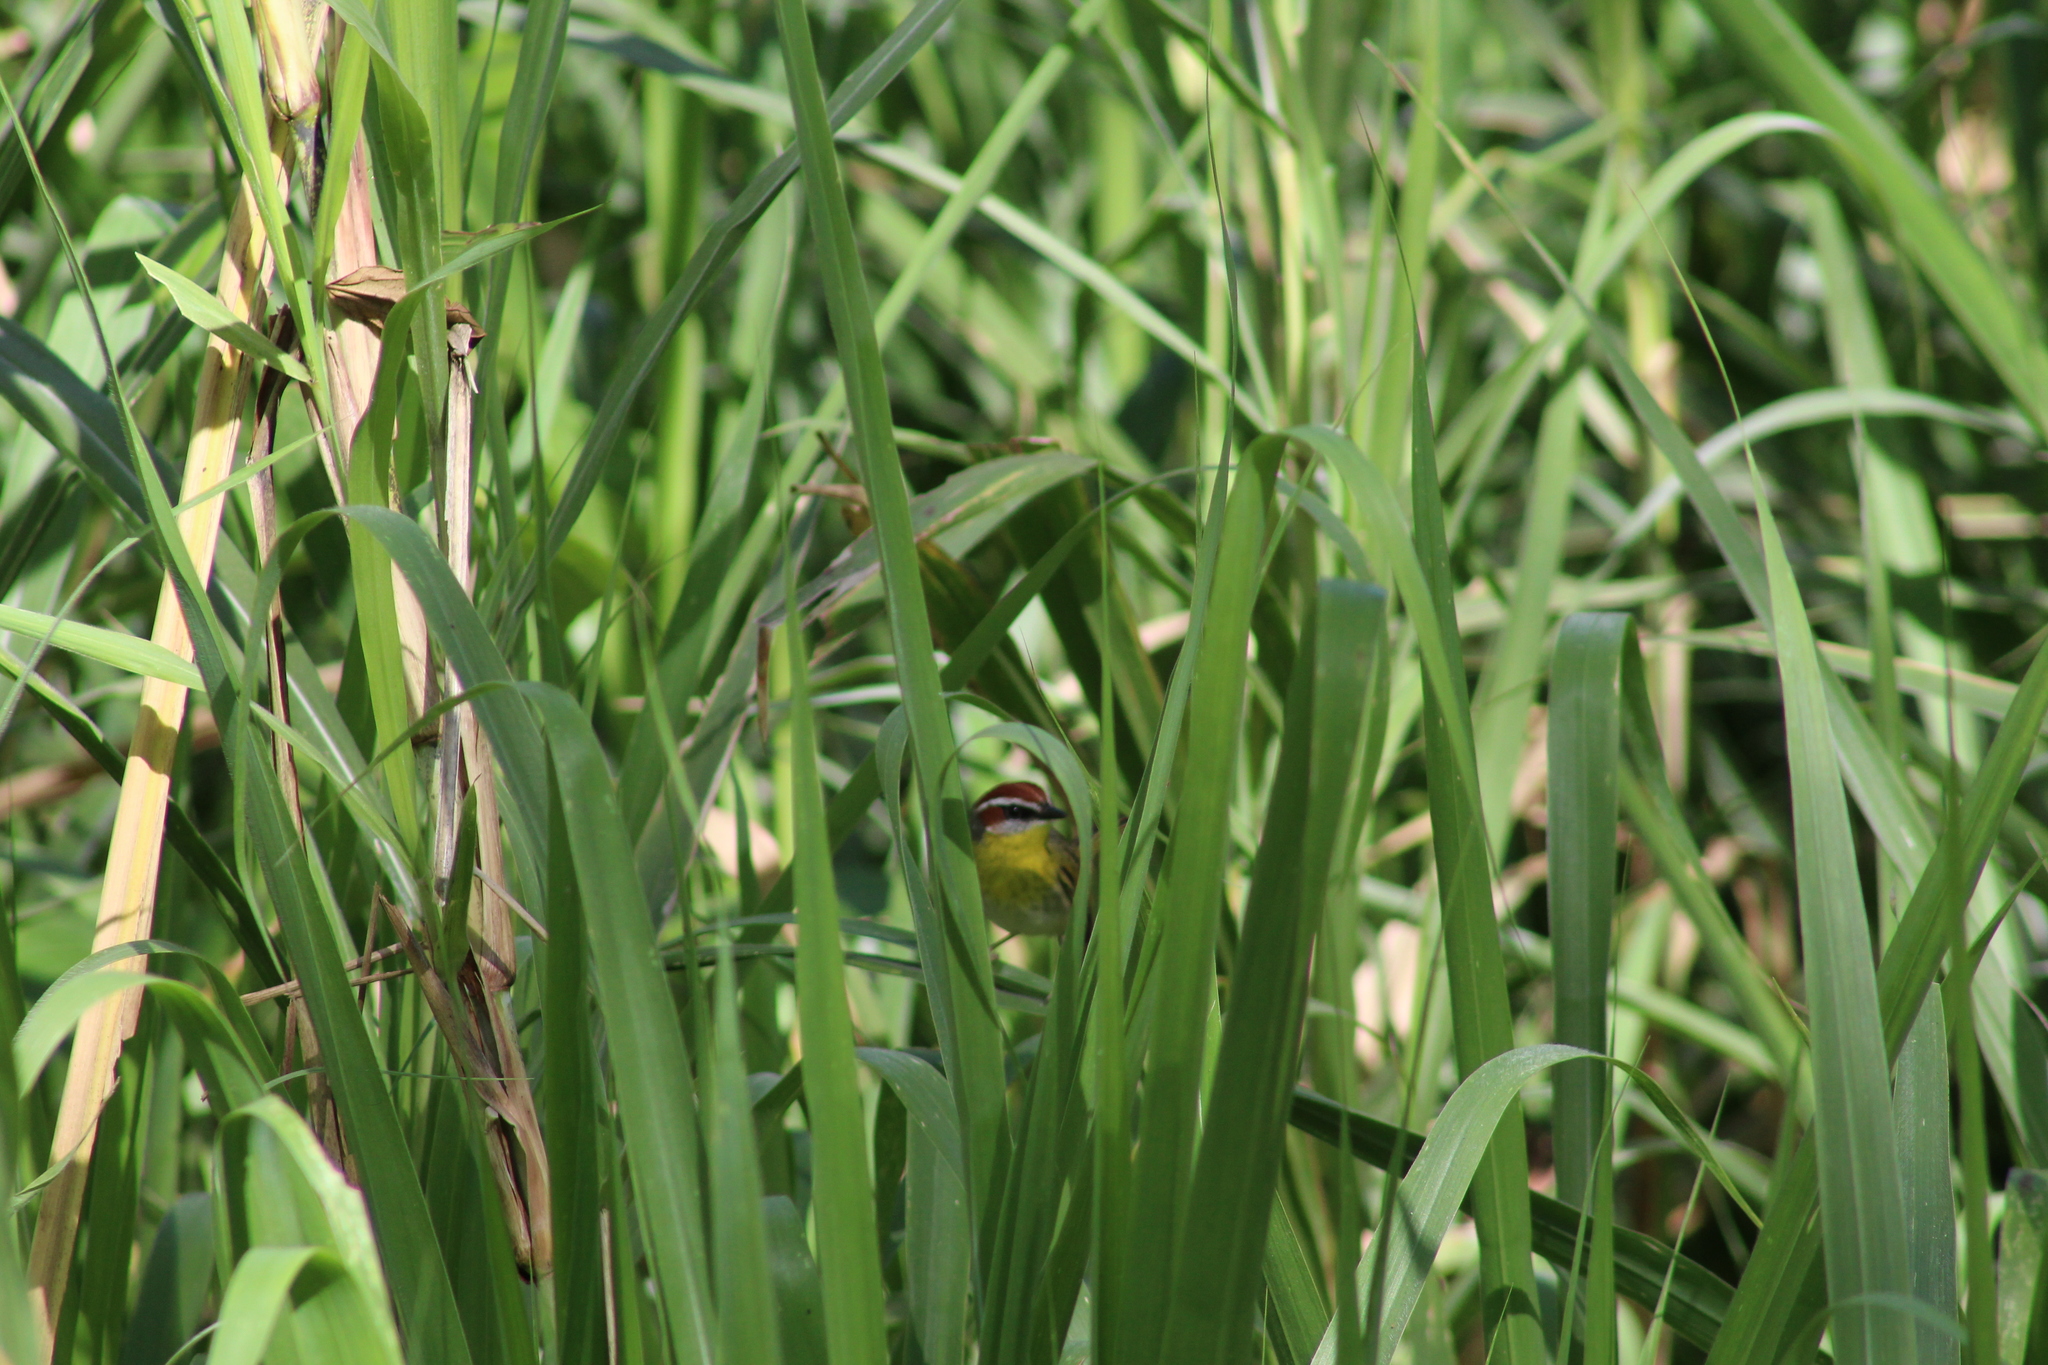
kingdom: Animalia
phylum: Chordata
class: Aves
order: Passeriformes
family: Parulidae
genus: Basileuterus
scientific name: Basileuterus rufifrons
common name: Rufous-capped warbler
